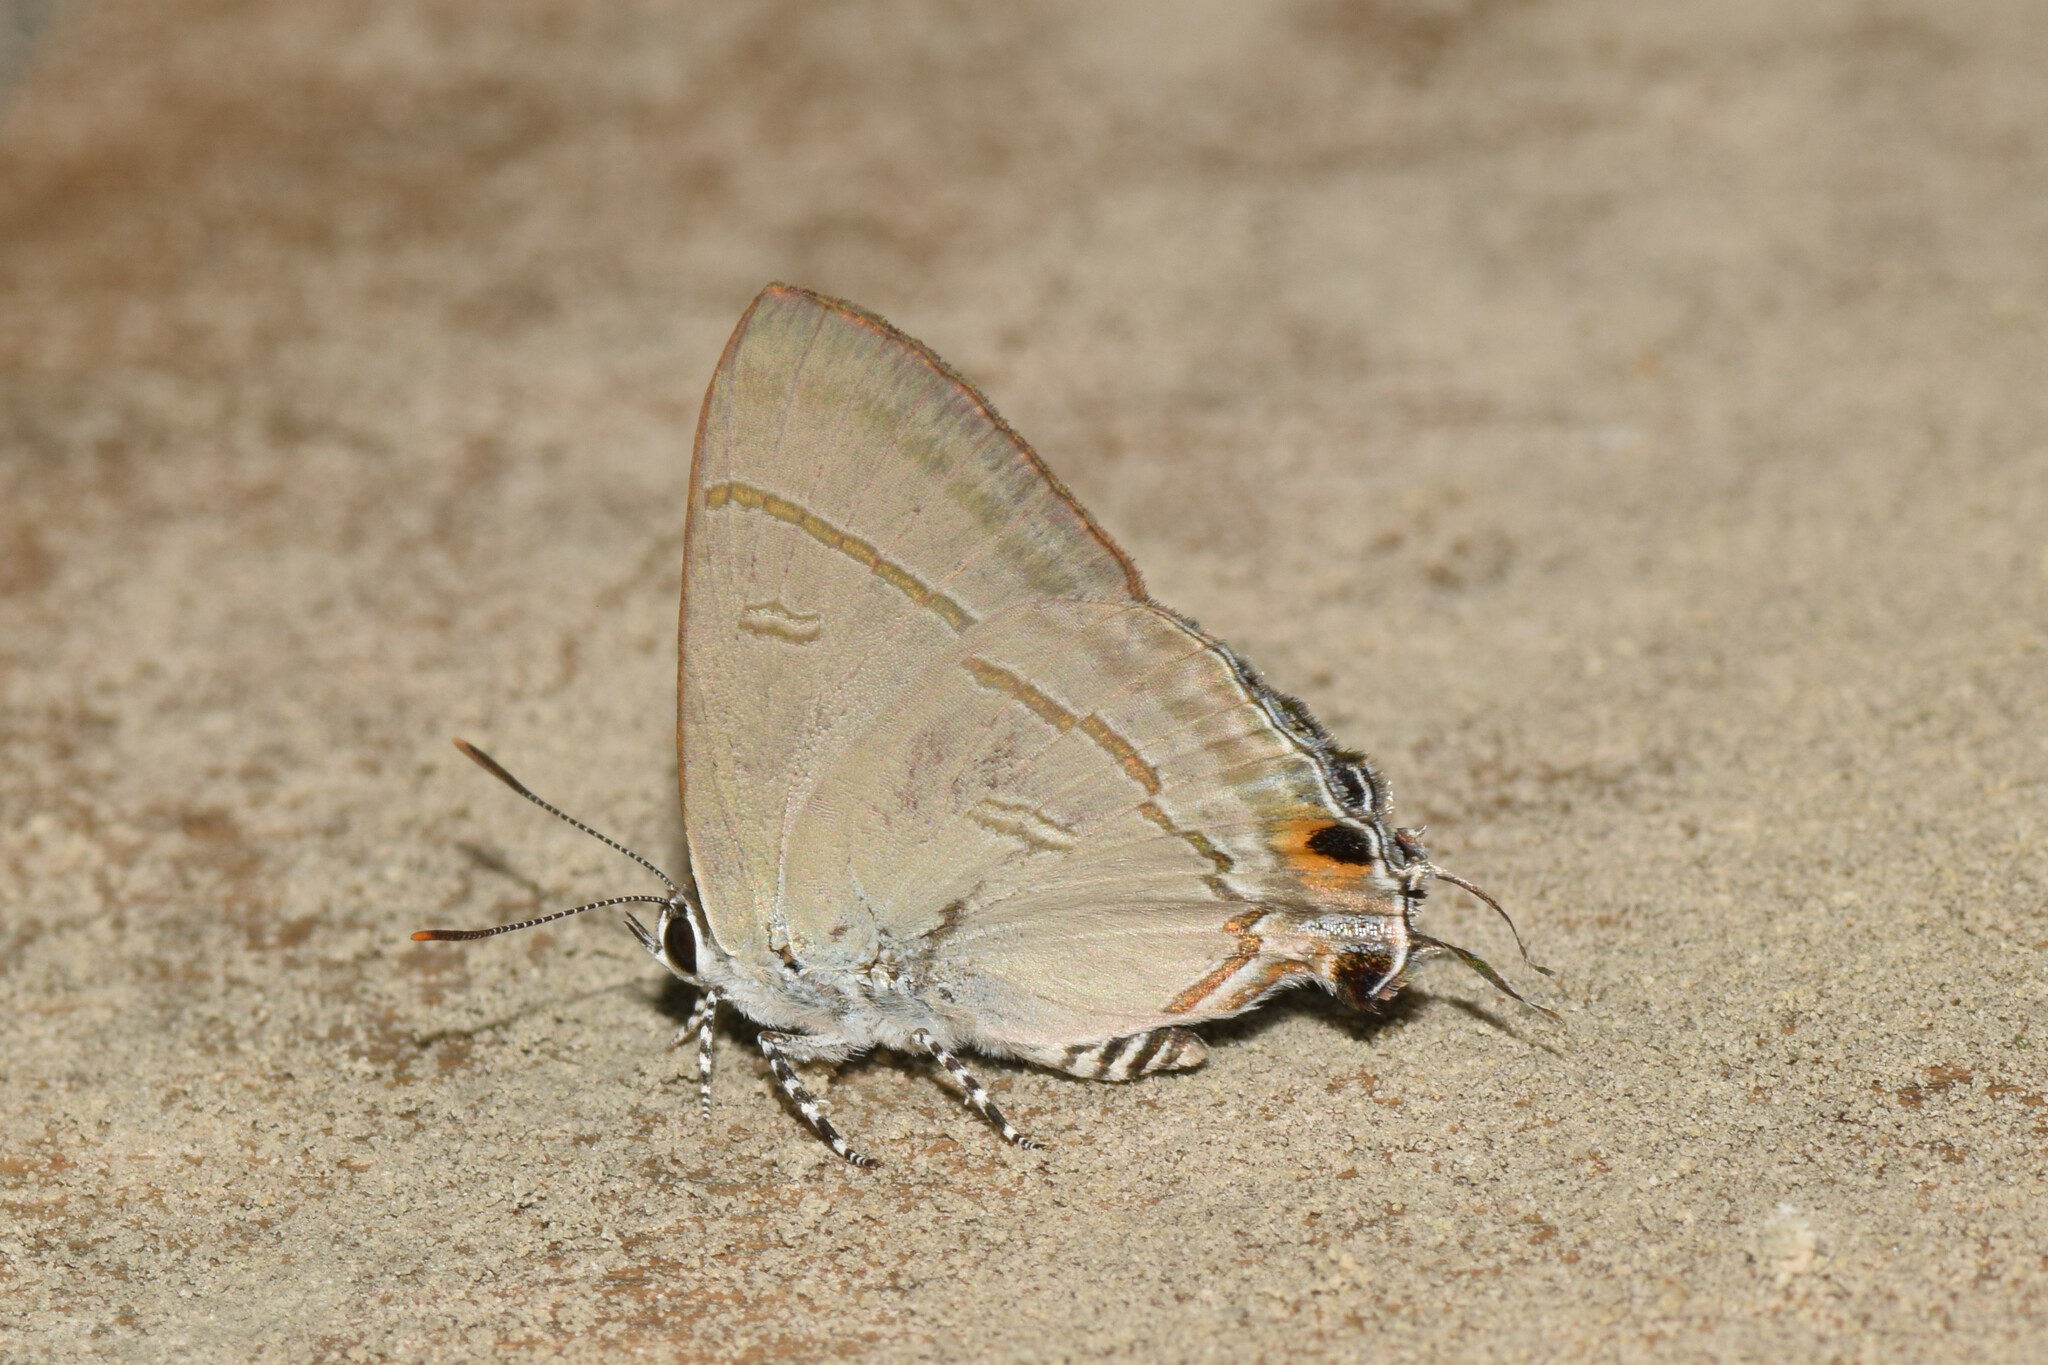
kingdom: Animalia
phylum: Arthropoda
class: Insecta
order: Lepidoptera
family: Lycaenidae
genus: Hypolycaena
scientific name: Hypolycaena erylus
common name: Common tit
